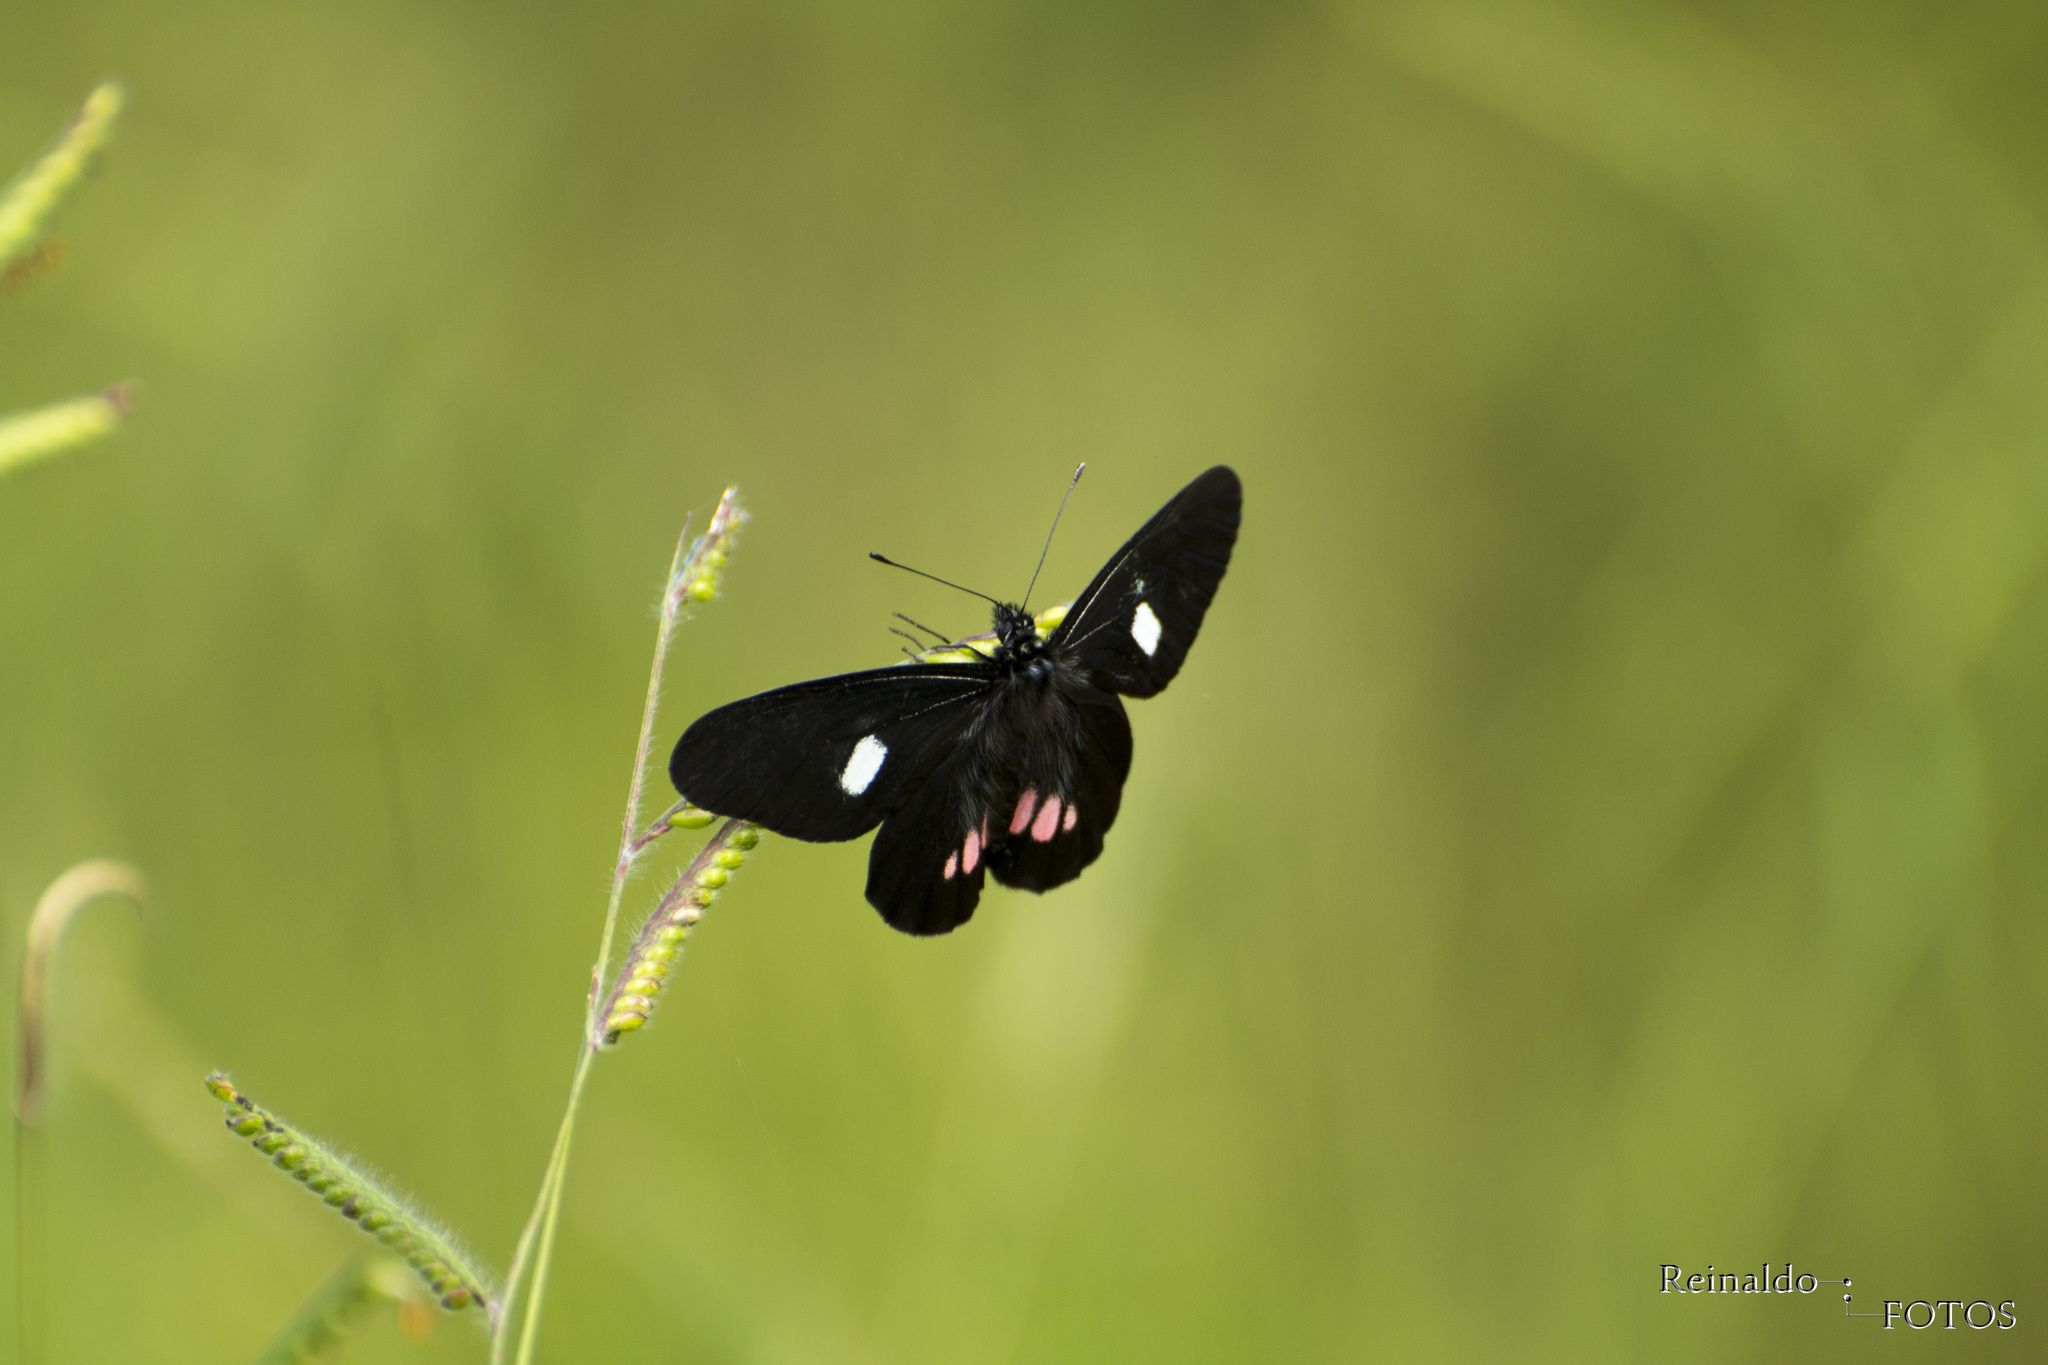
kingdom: Animalia
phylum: Arthropoda
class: Insecta
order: Lepidoptera
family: Pieridae
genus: Archonias
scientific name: Archonias brassolis
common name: Cattleheart white
